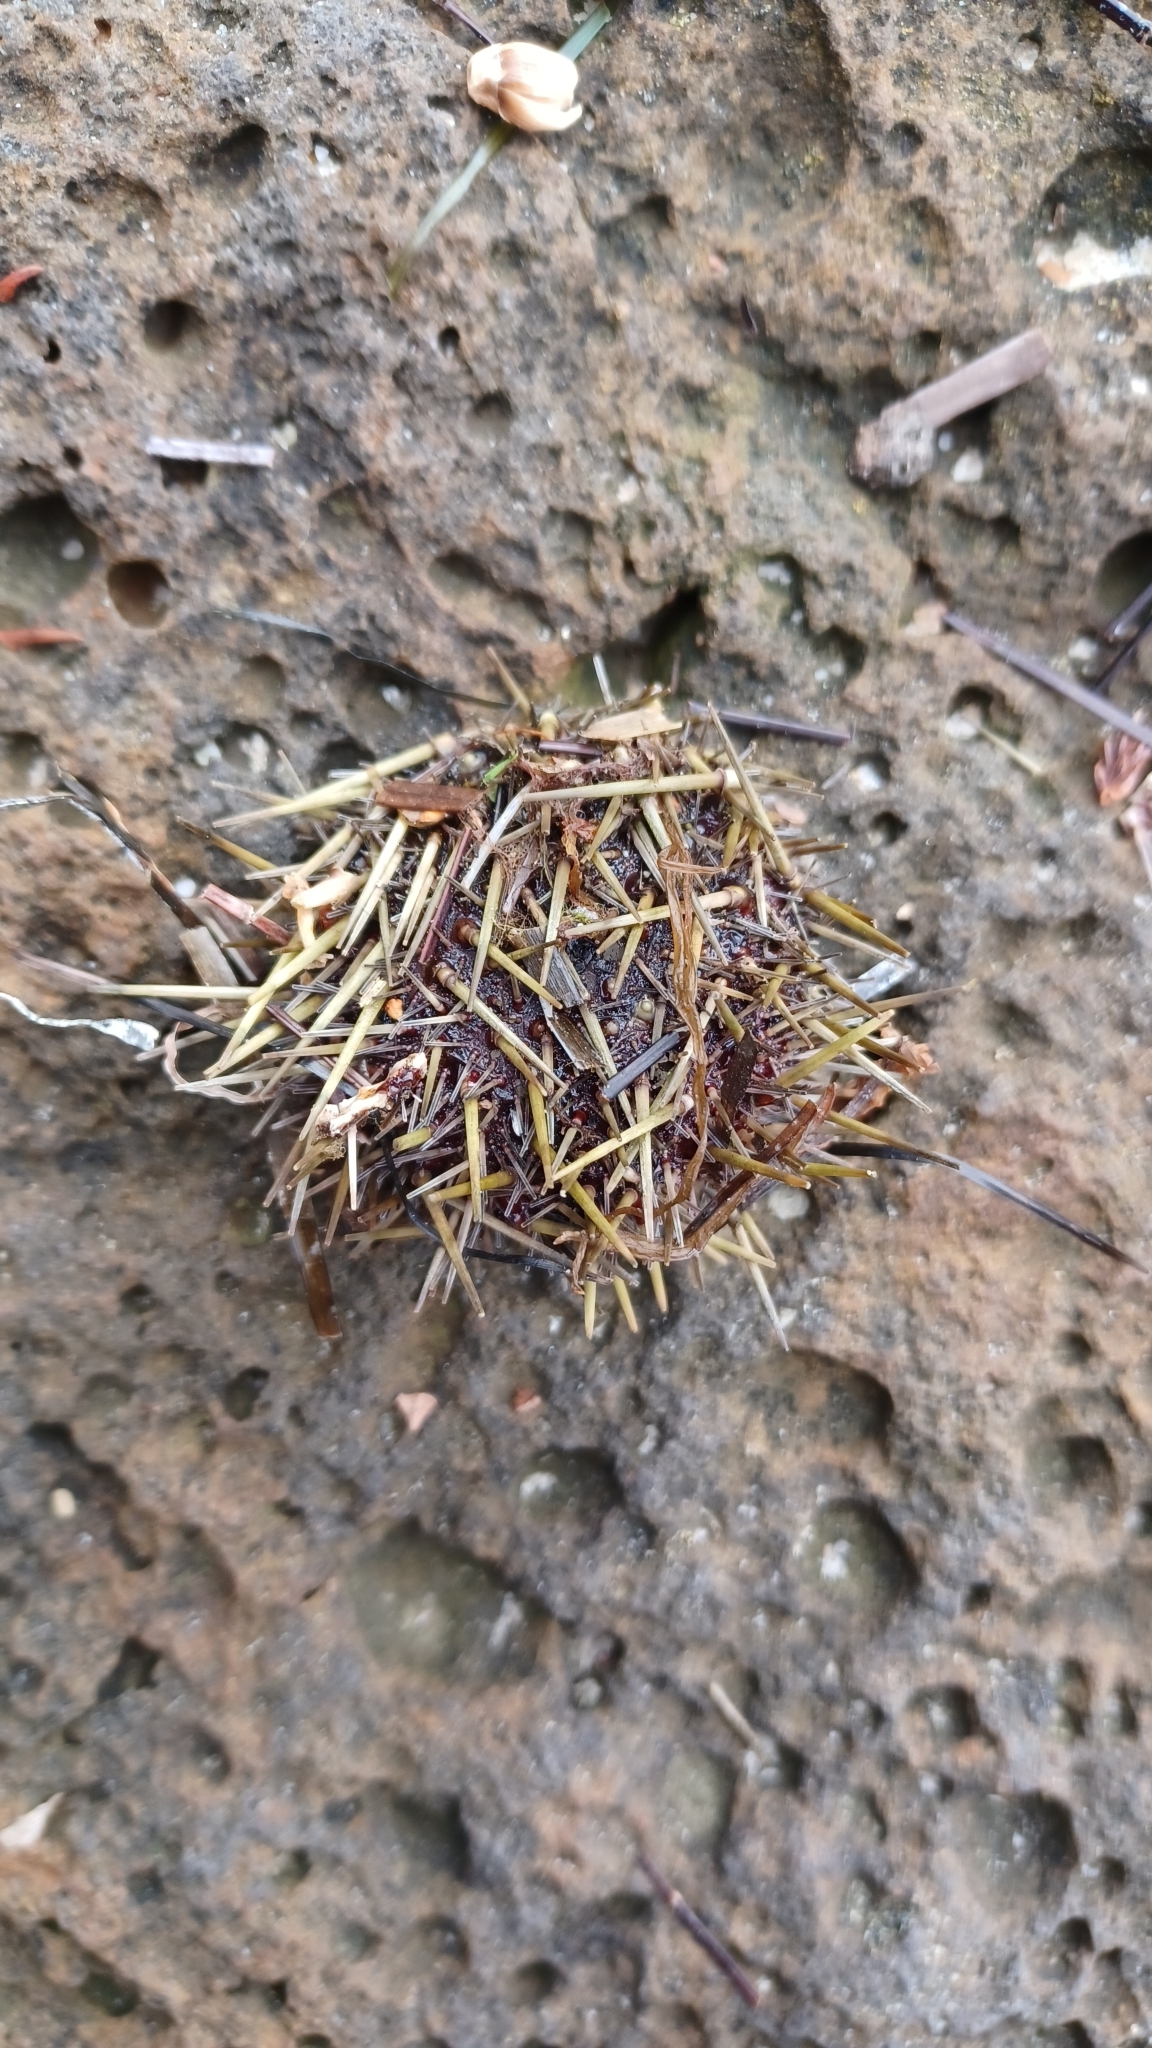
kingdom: Animalia
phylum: Echinodermata
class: Echinoidea
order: Camarodonta
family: Echinometridae
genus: Heliocidaris
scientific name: Heliocidaris erythrogramma
